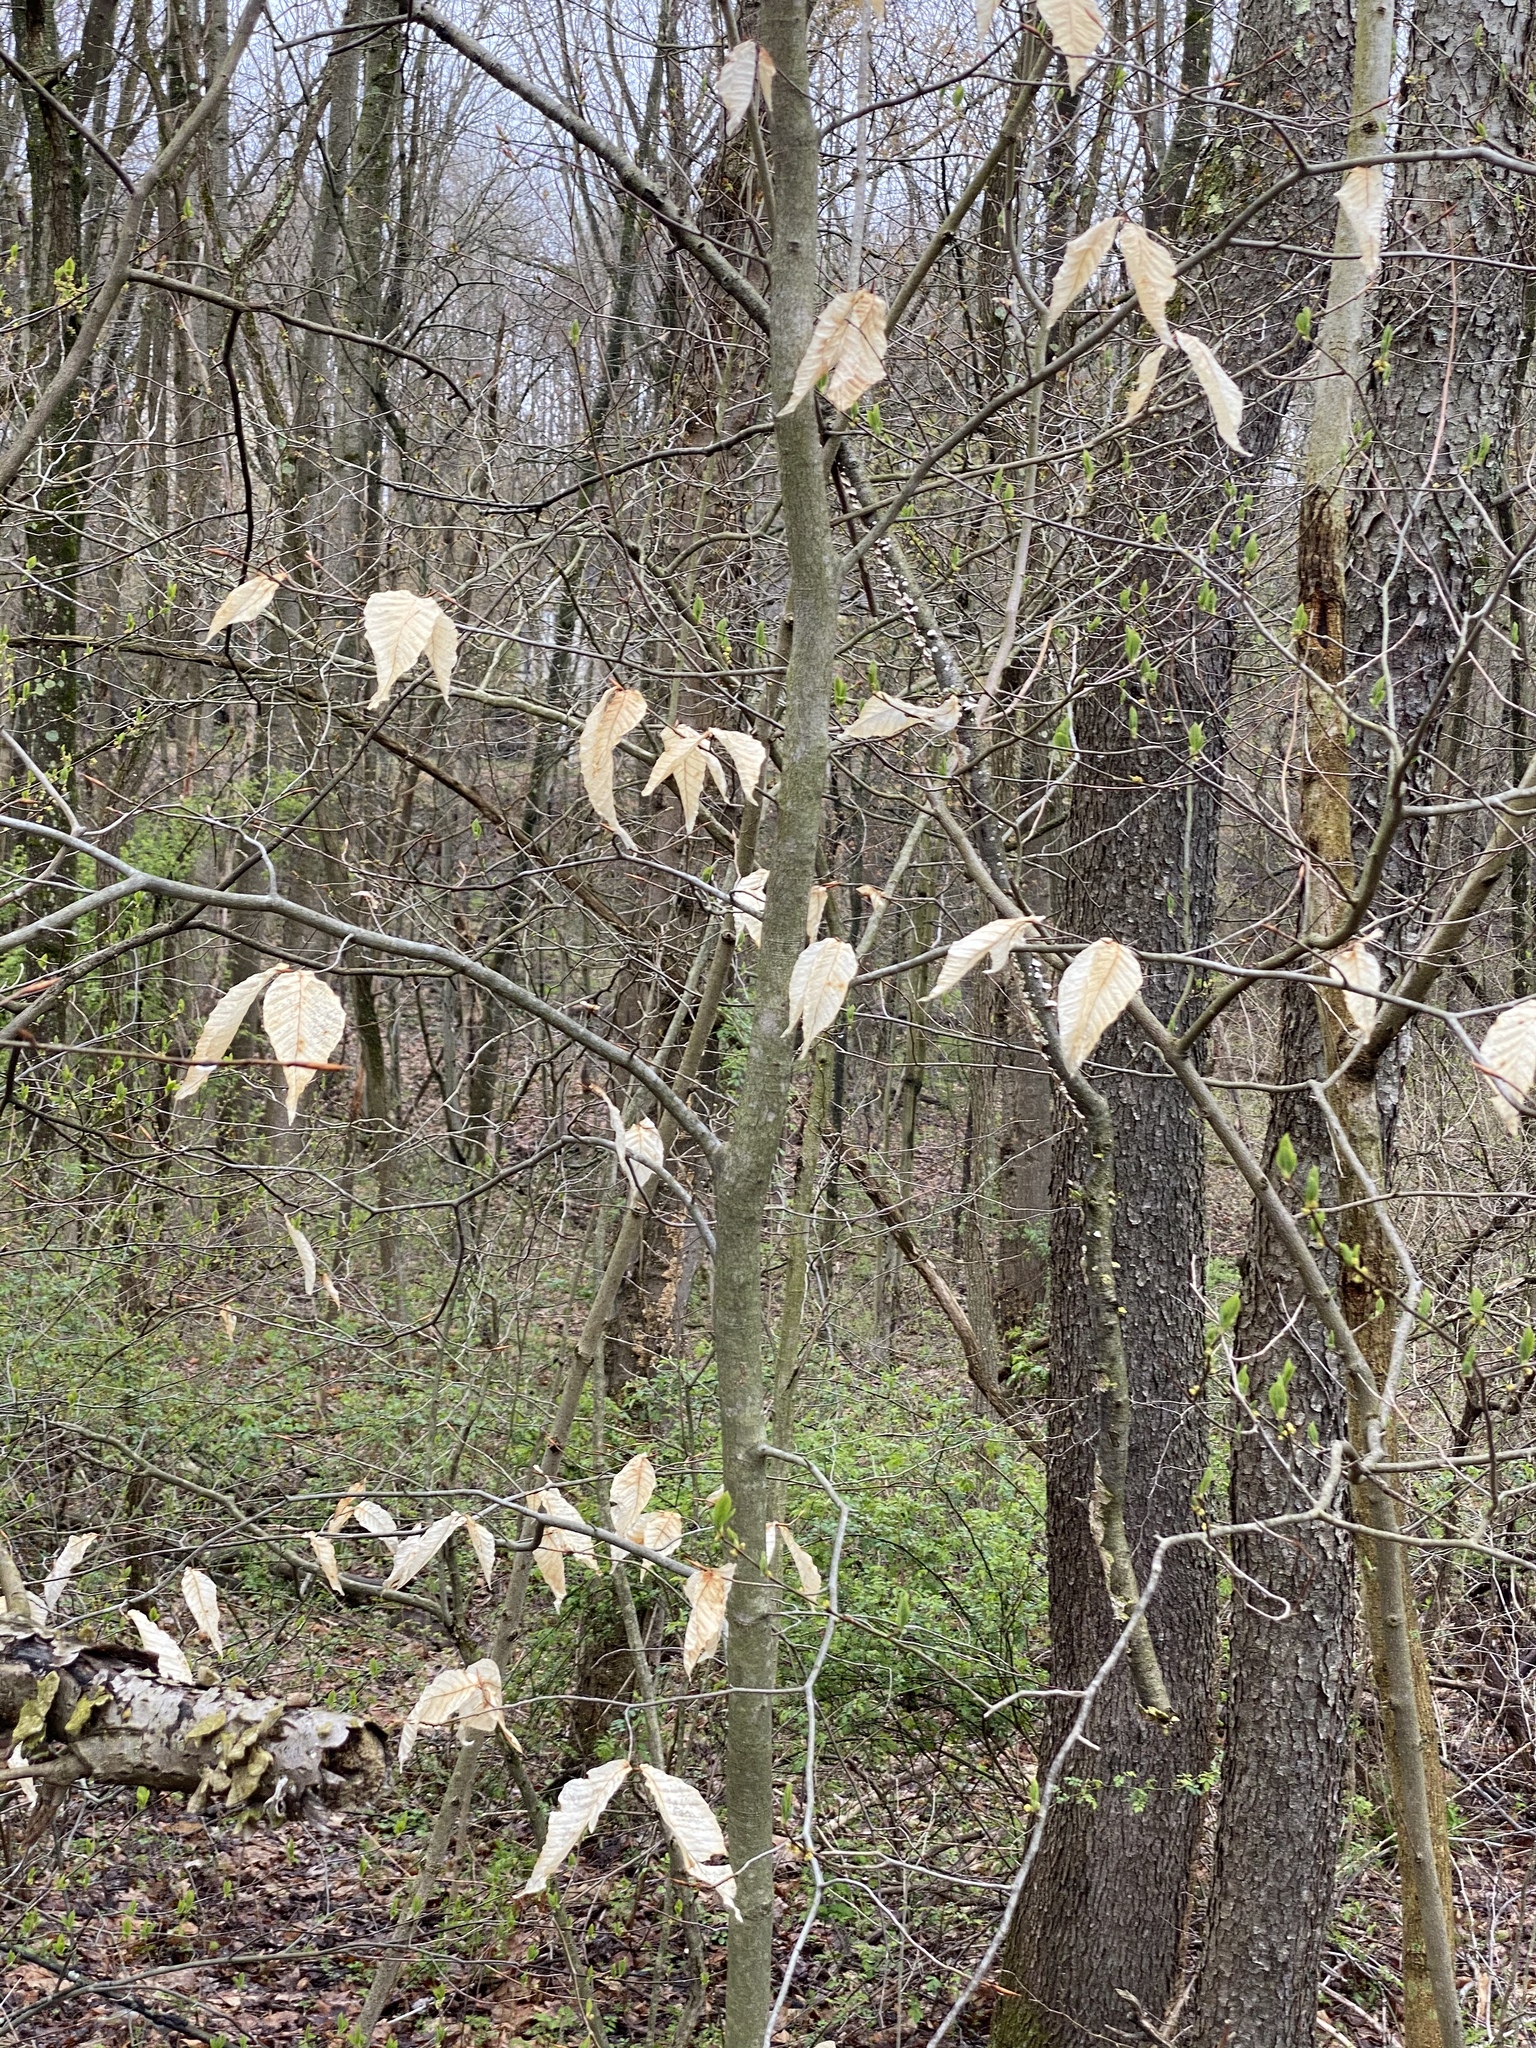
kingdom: Plantae
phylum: Tracheophyta
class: Magnoliopsida
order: Fagales
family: Fagaceae
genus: Fagus
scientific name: Fagus grandifolia
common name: American beech
